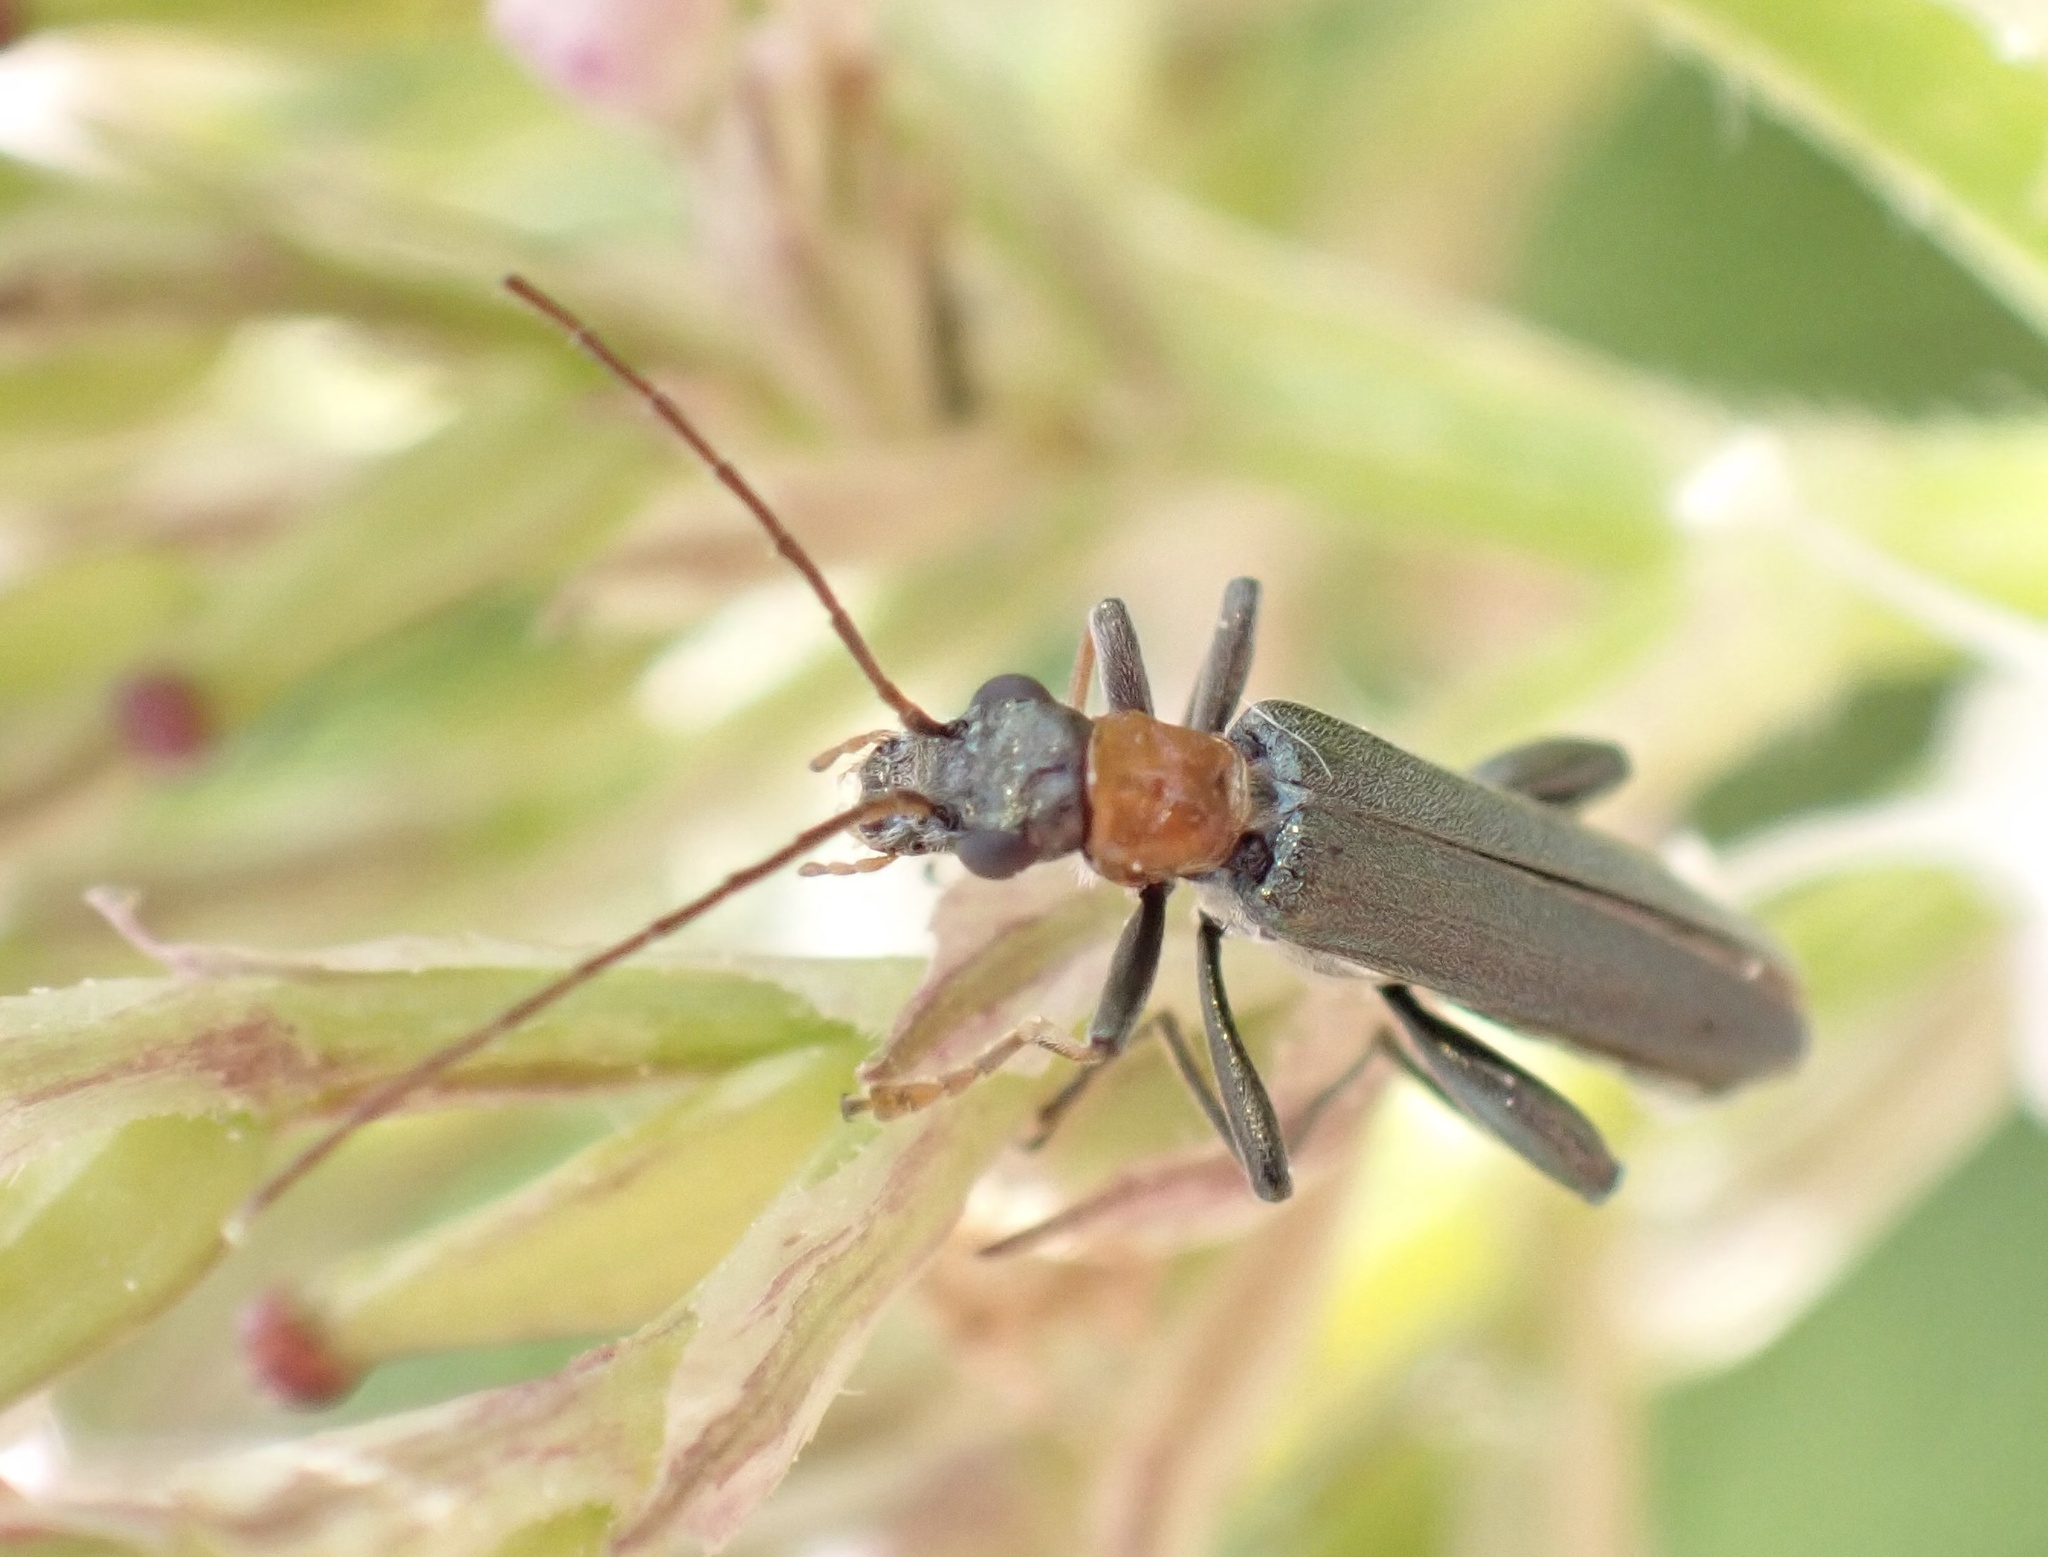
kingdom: Animalia
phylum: Arthropoda
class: Insecta
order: Coleoptera
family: Oedemeridae
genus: Oedemera
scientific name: Oedemera croceicollis
